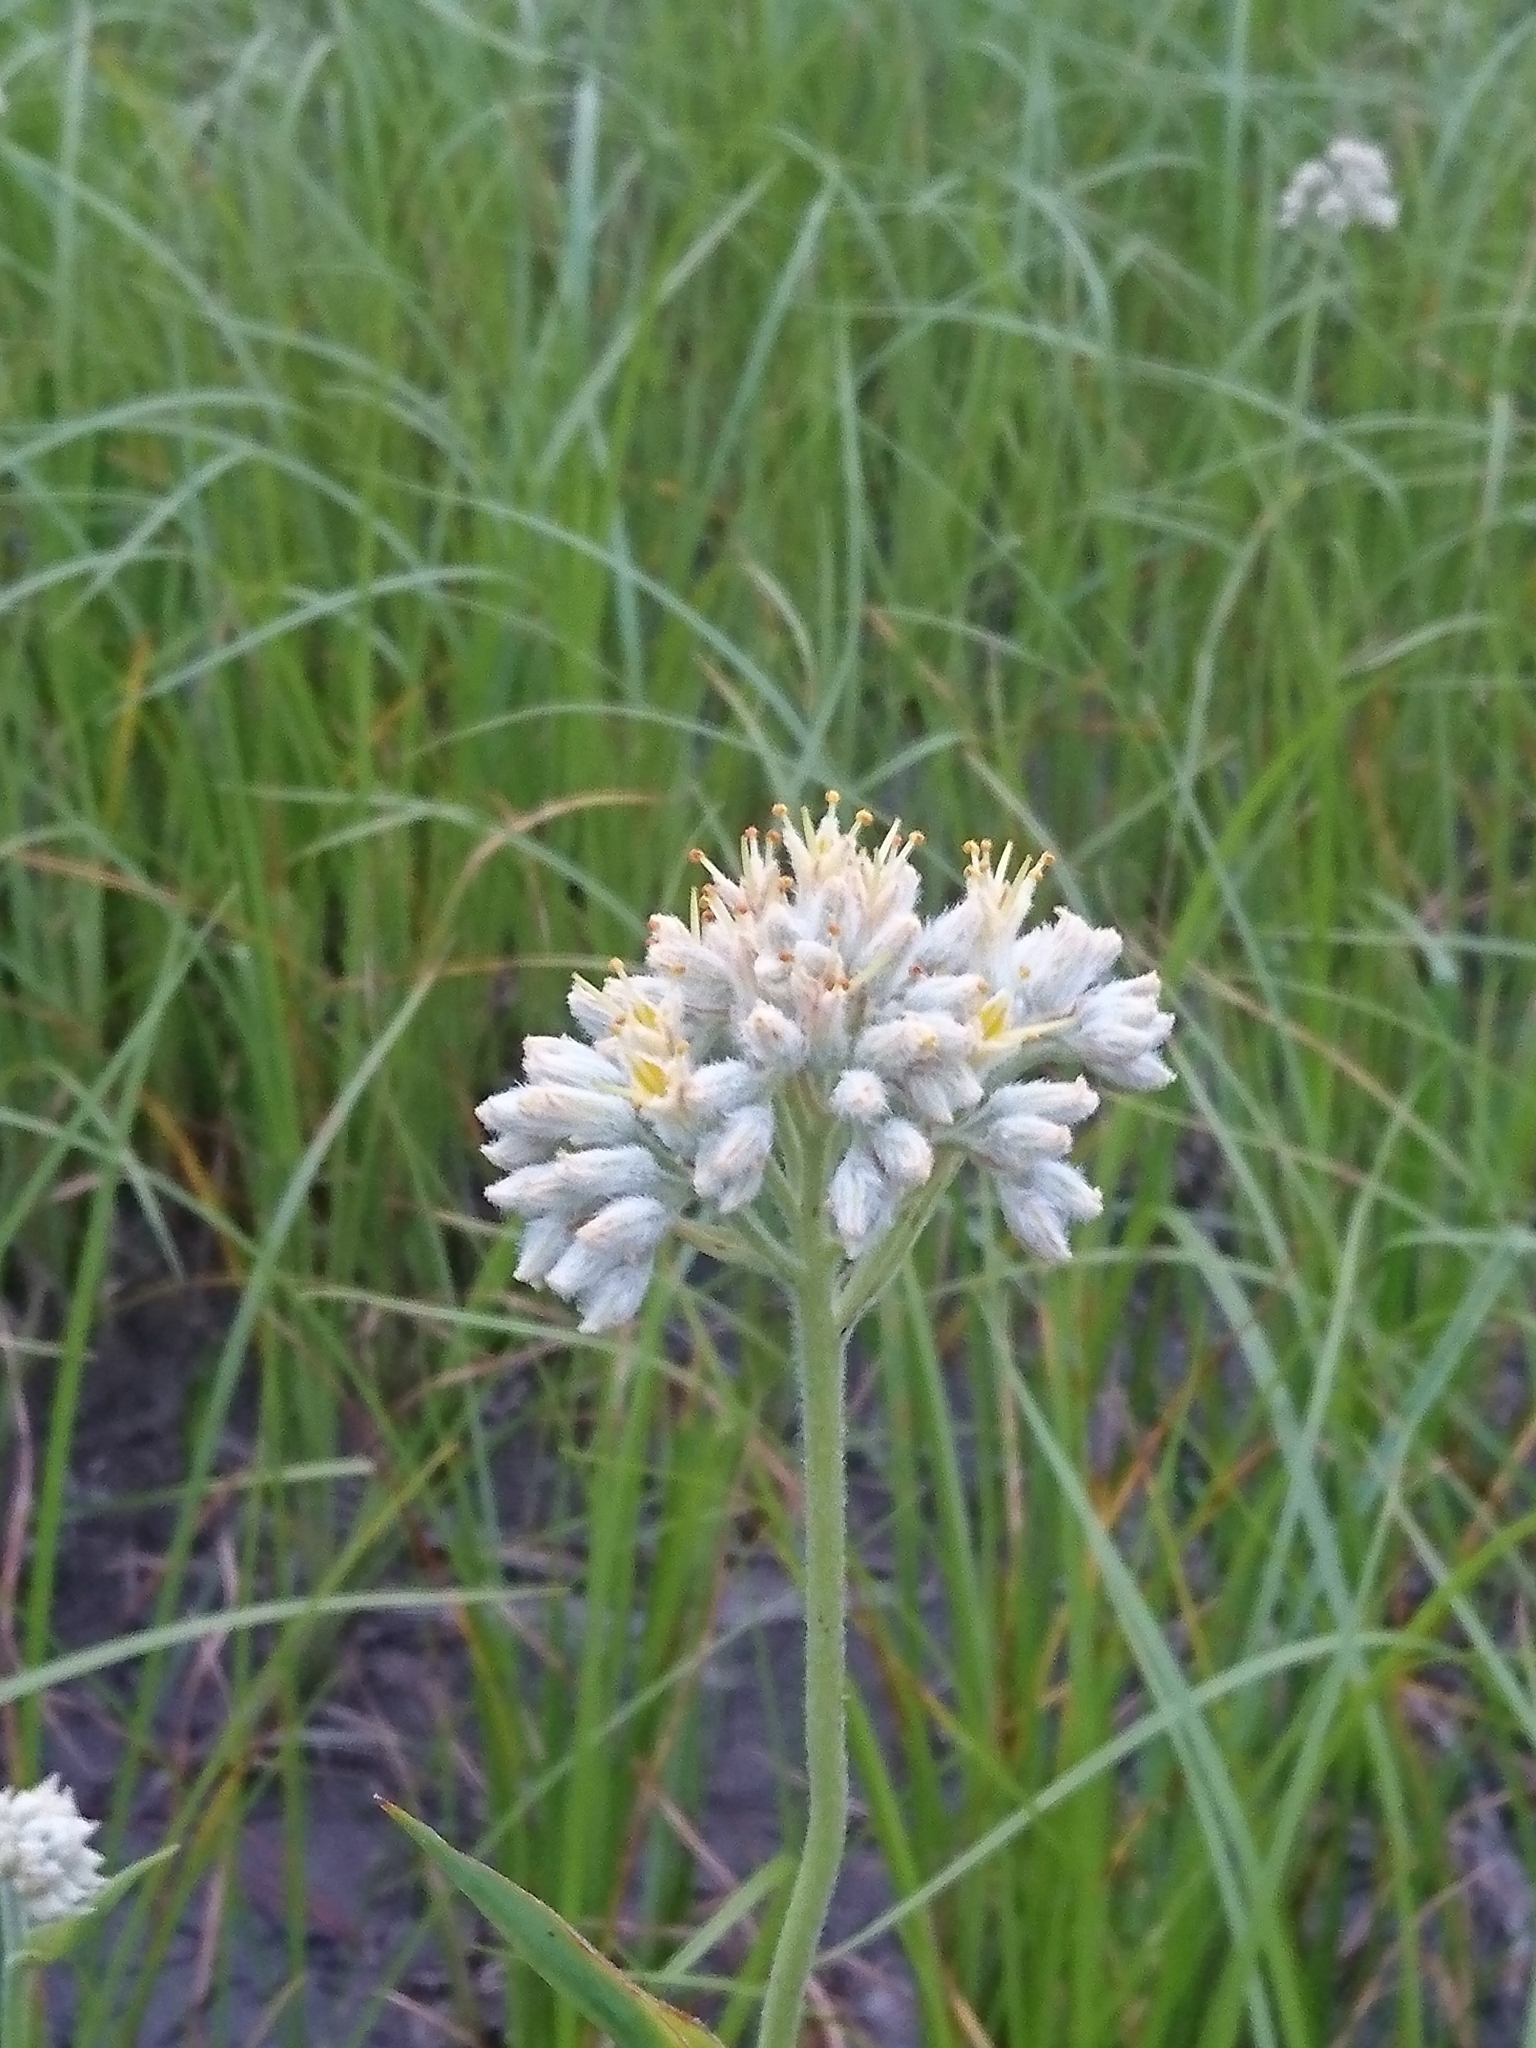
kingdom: Plantae
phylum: Tracheophyta
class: Liliopsida
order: Commelinales
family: Haemodoraceae
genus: Lachnanthes
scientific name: Lachnanthes caroliana
